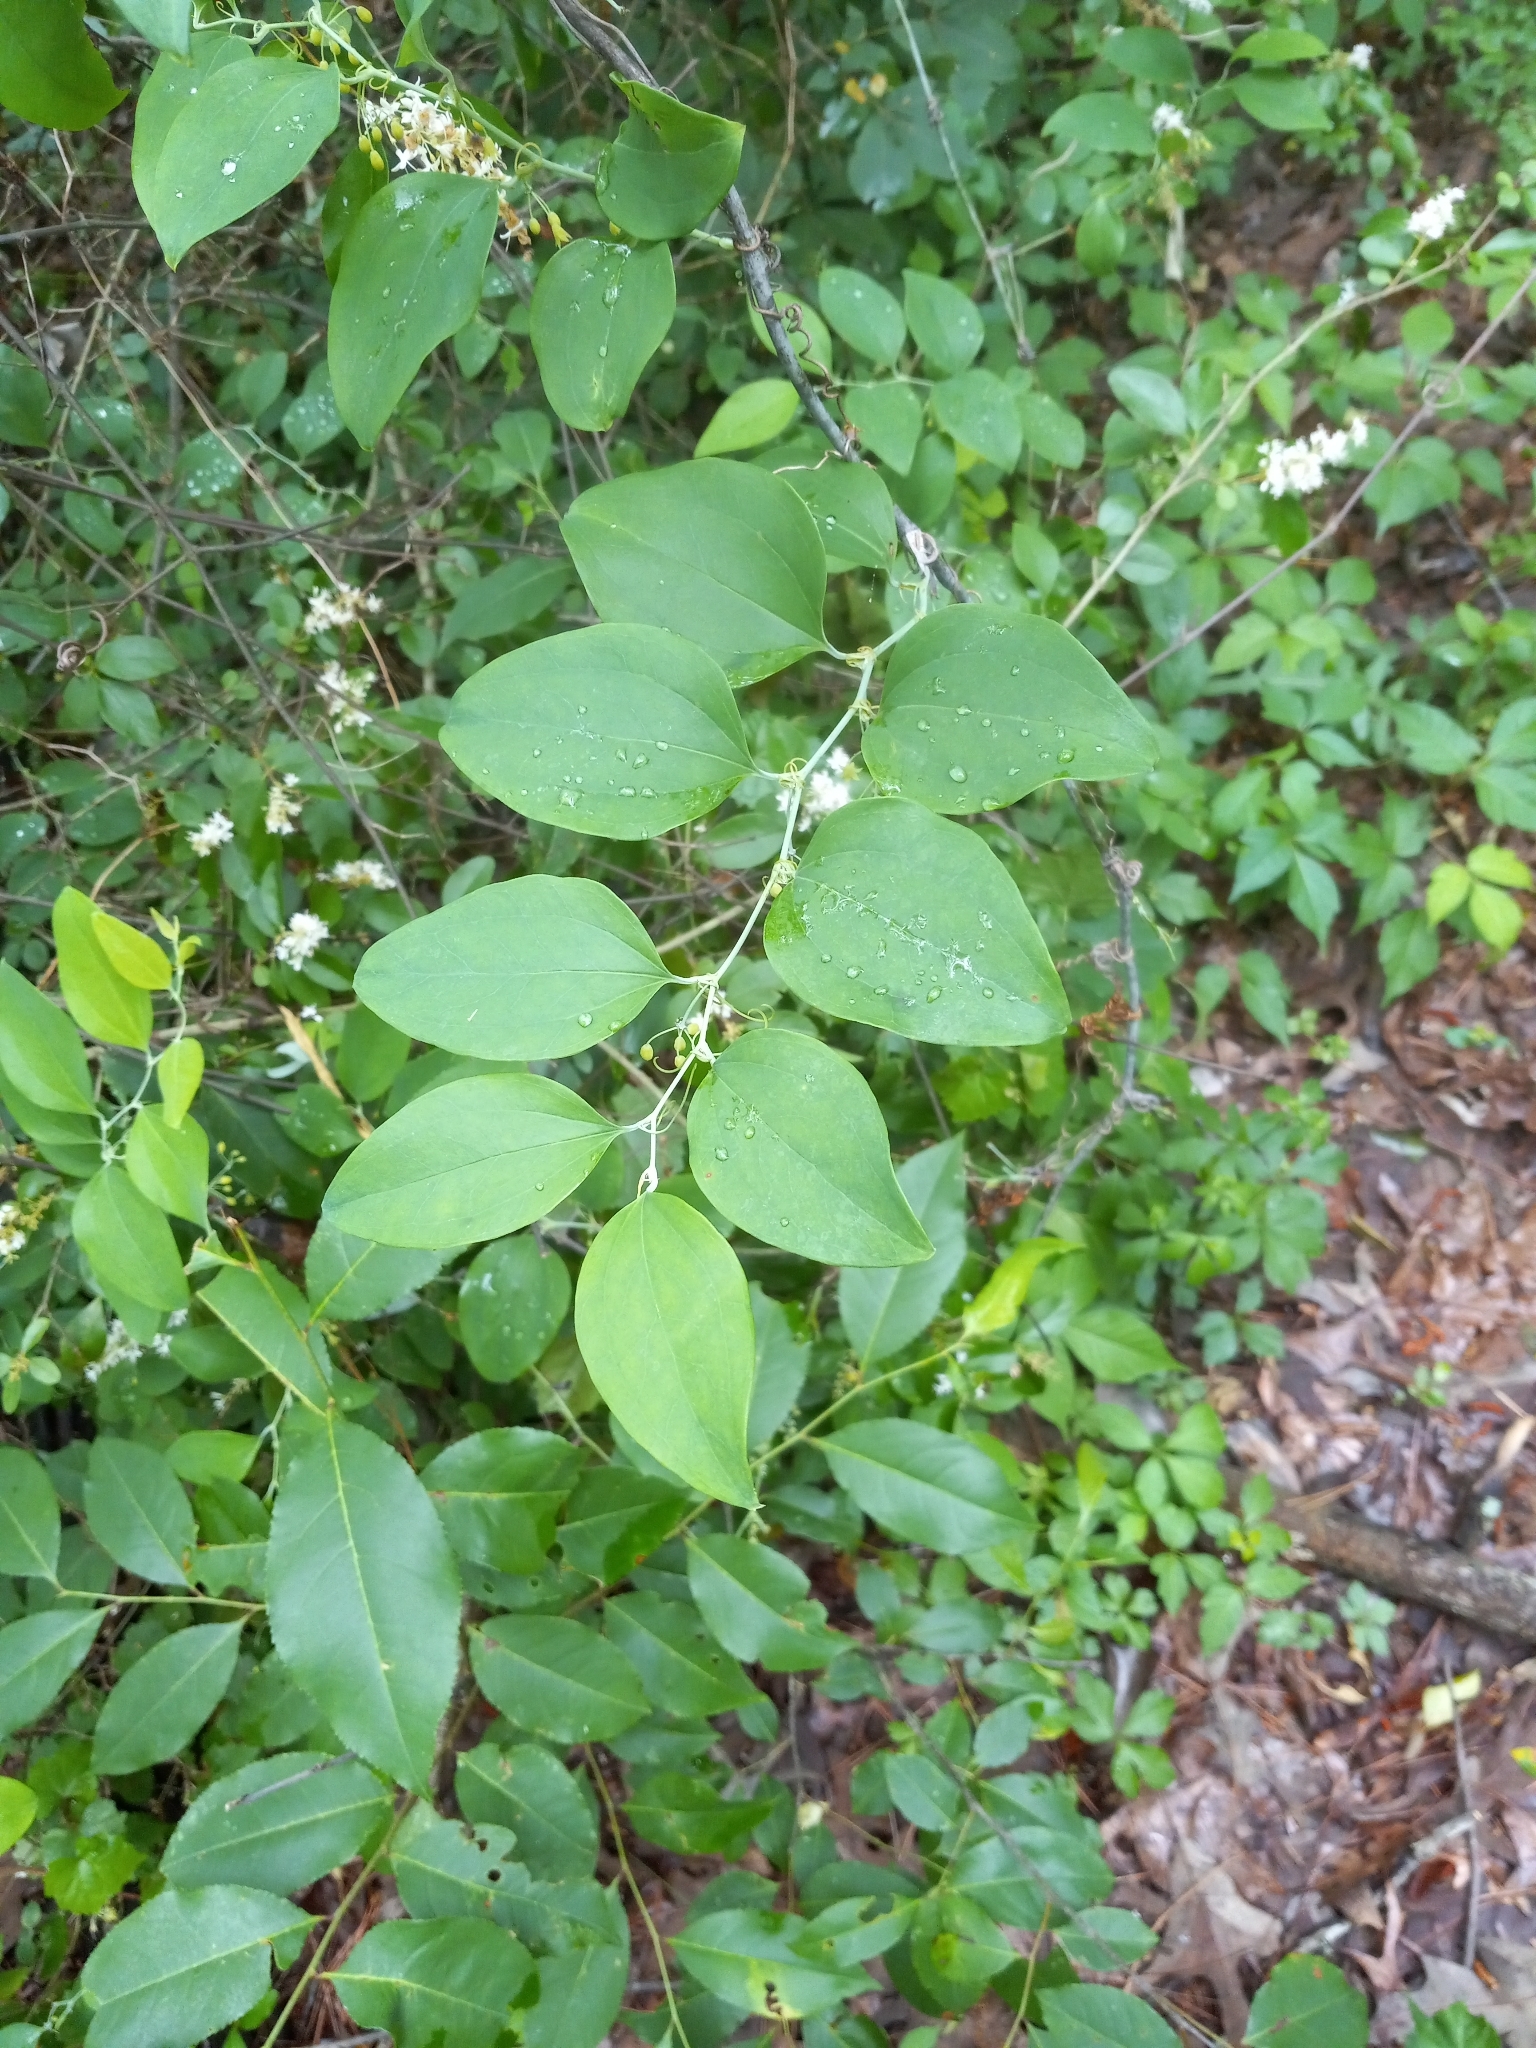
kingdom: Plantae
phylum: Tracheophyta
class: Liliopsida
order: Liliales
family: Smilacaceae
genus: Smilax
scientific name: Smilax glauca
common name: Cat greenbrier
